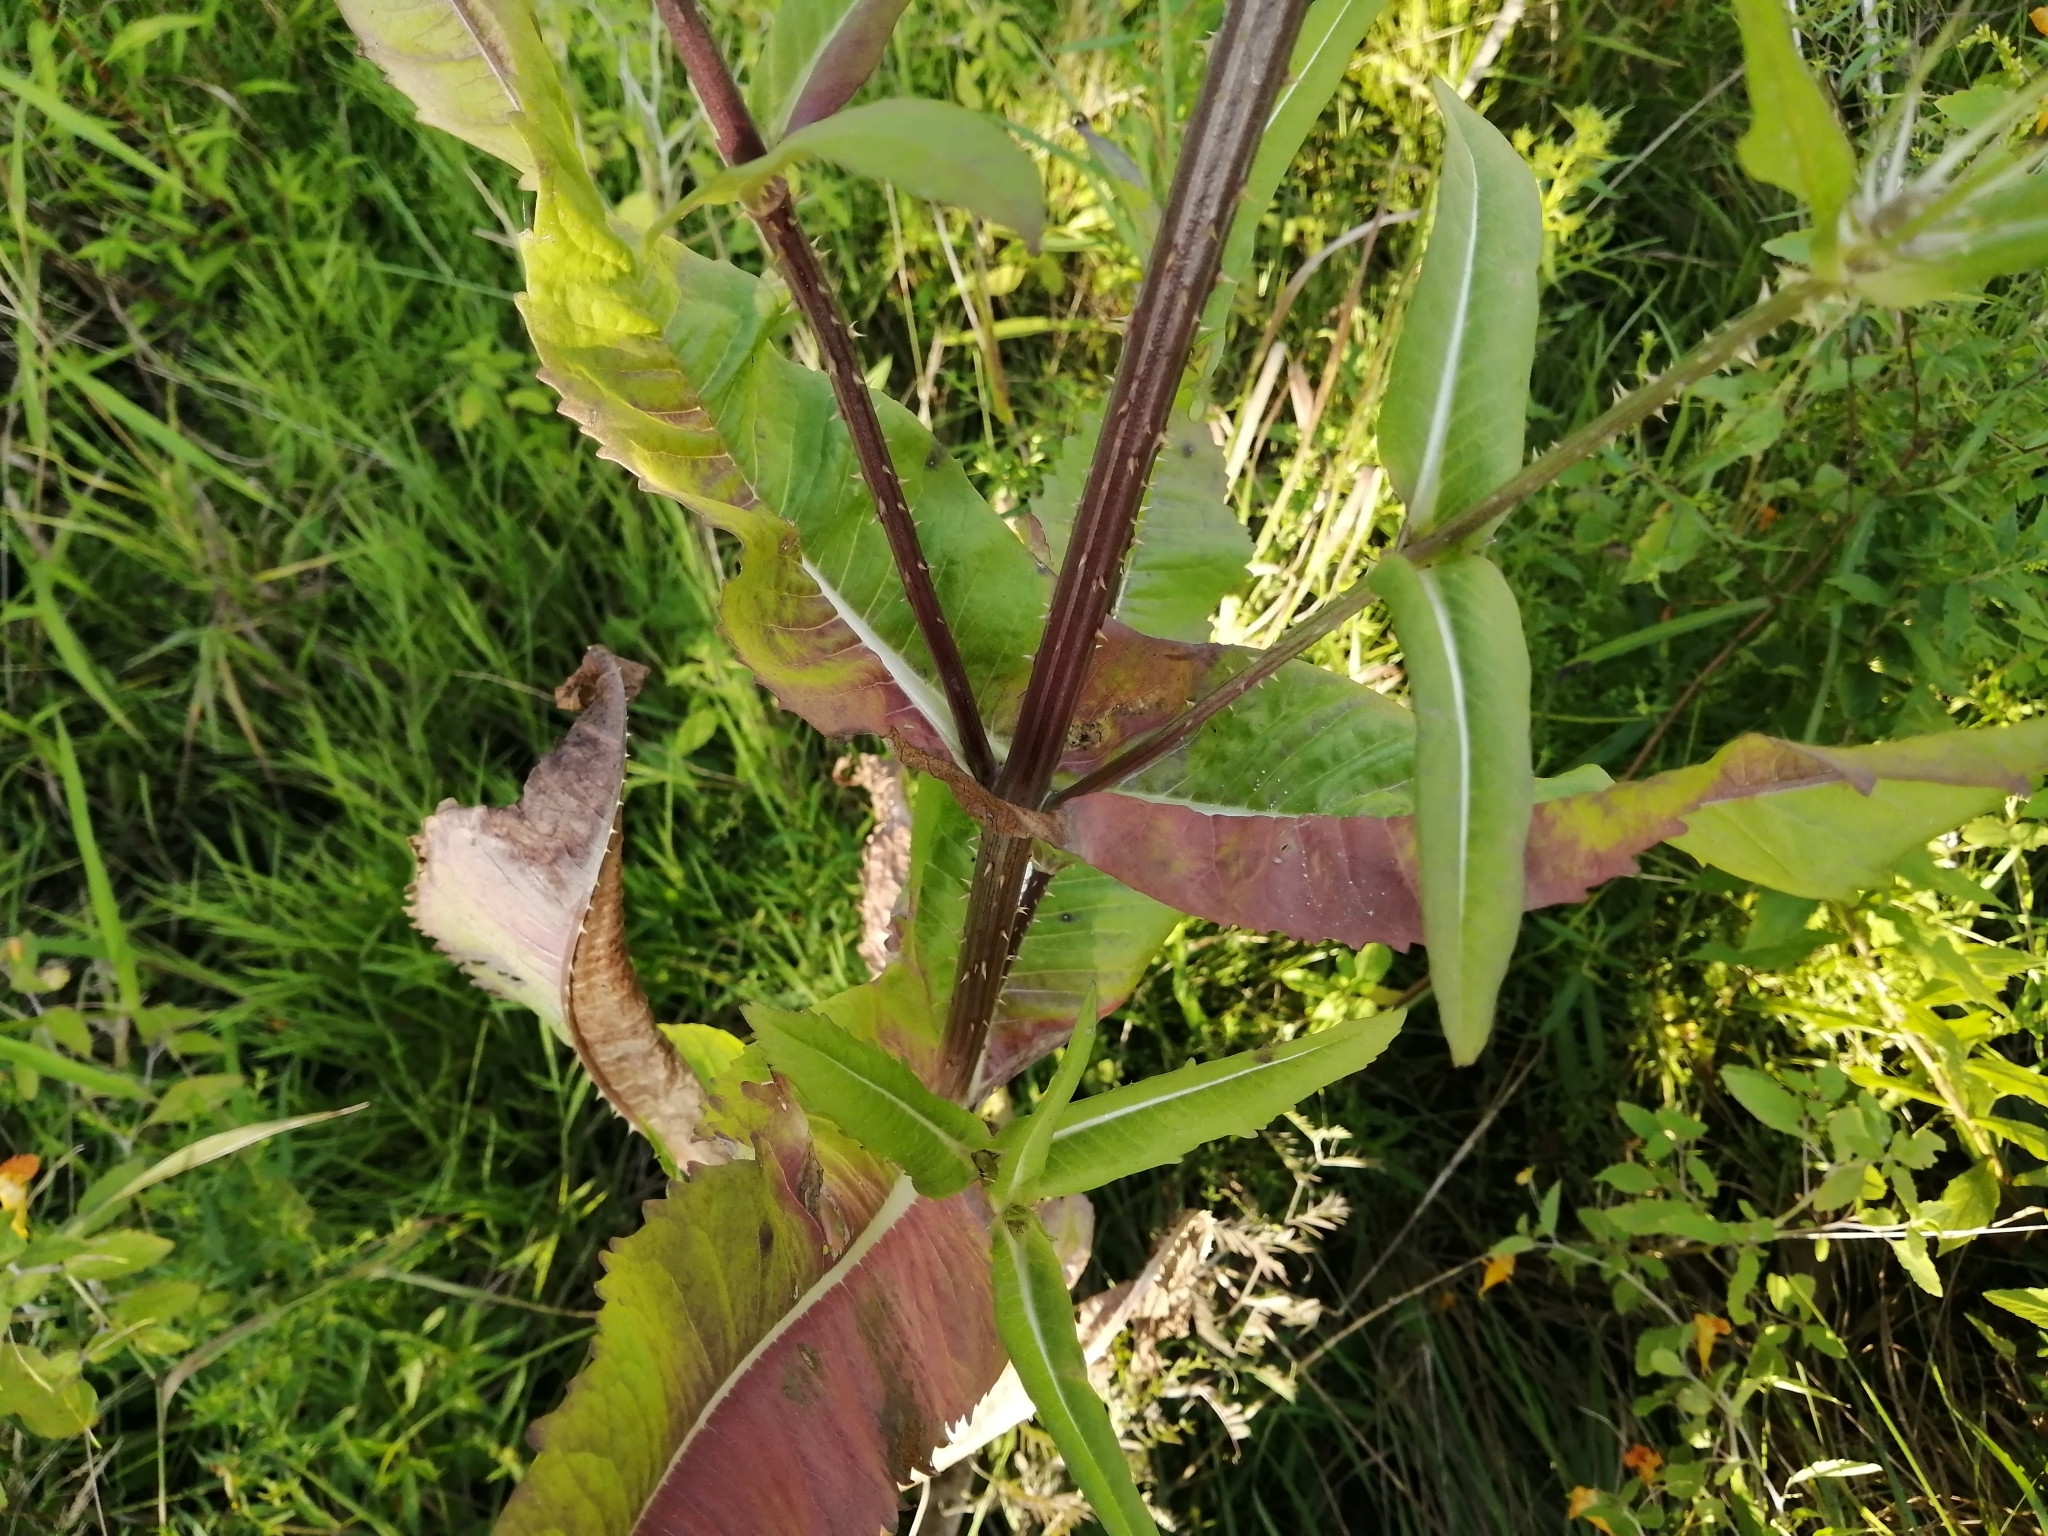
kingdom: Plantae
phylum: Tracheophyta
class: Magnoliopsida
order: Dipsacales
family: Caprifoliaceae
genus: Dipsacus
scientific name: Dipsacus fullonum
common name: Teasel
